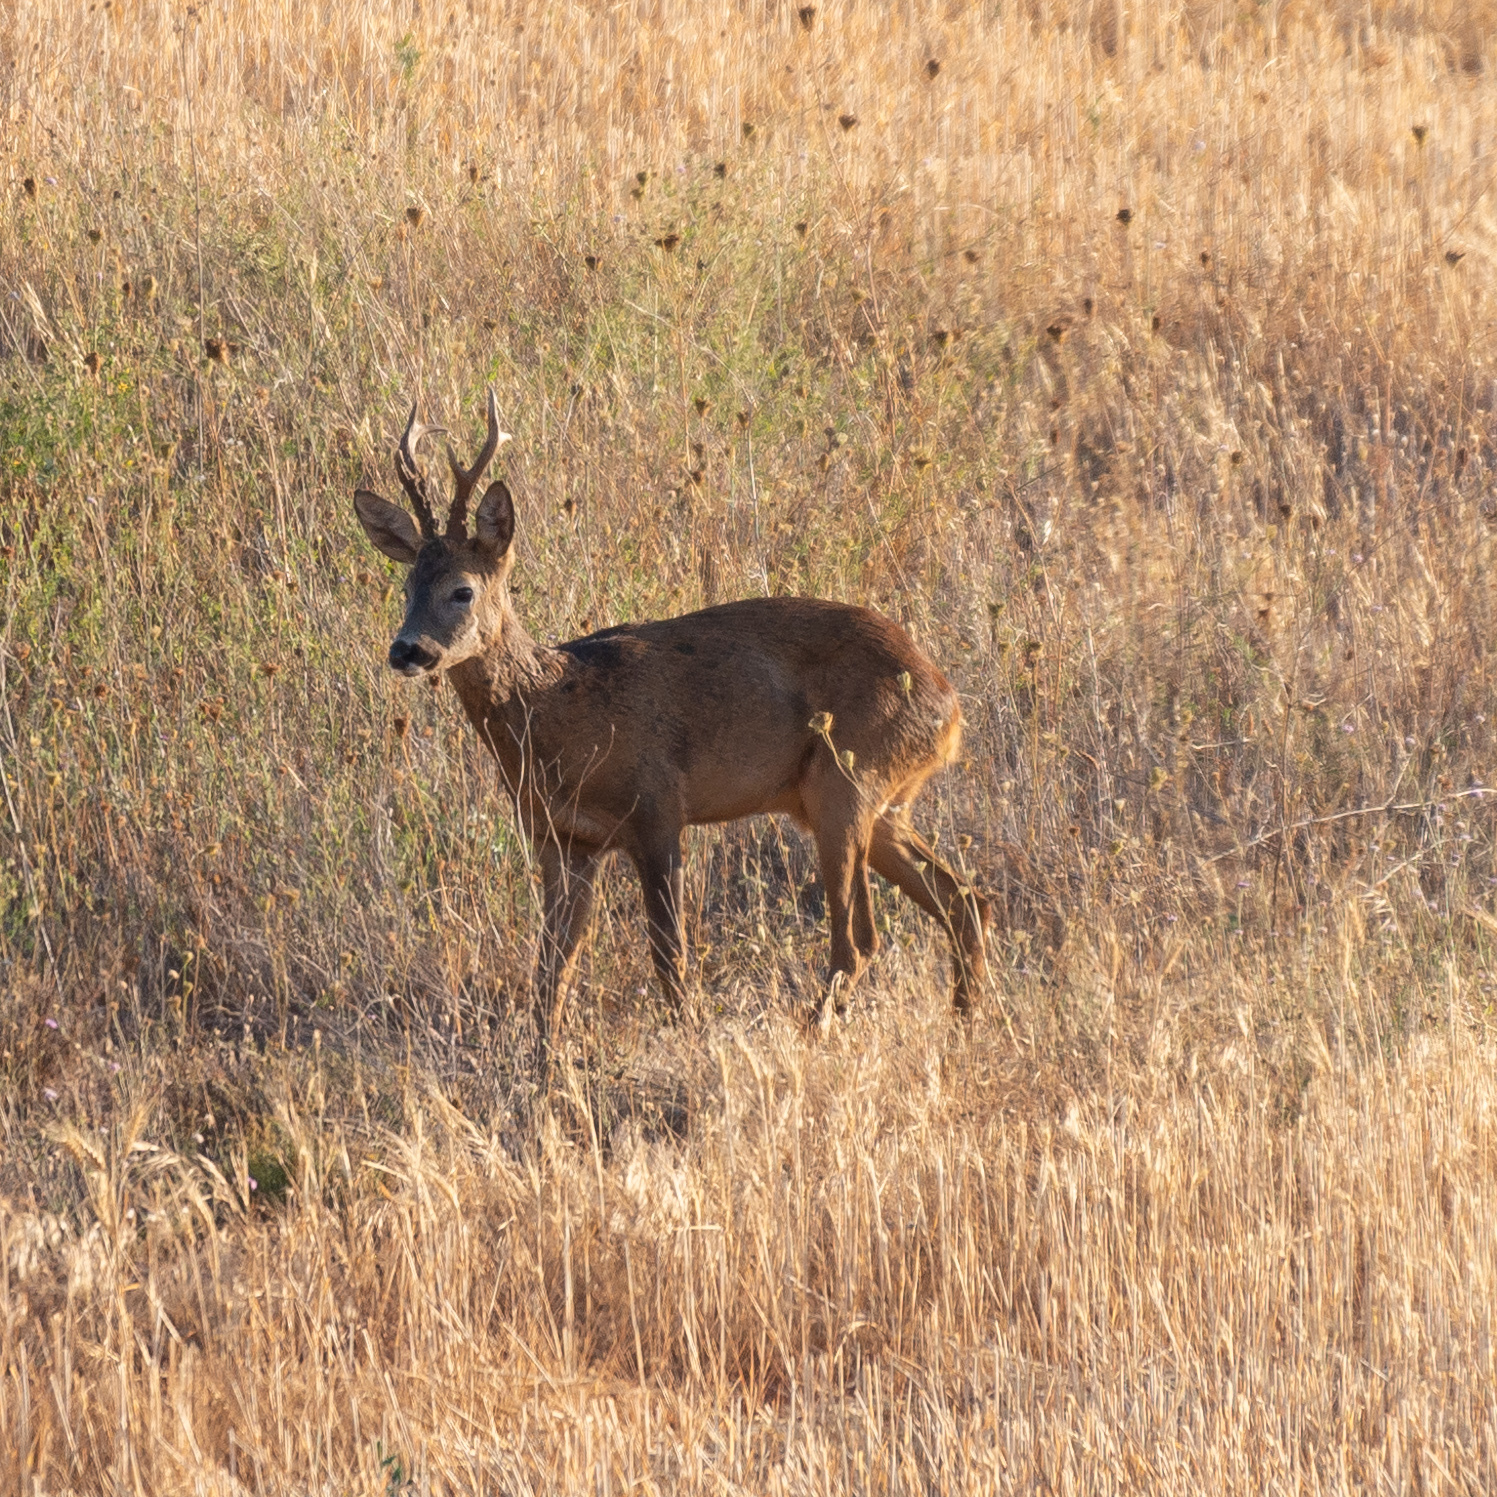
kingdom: Animalia
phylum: Chordata
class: Mammalia
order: Artiodactyla
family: Cervidae
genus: Capreolus
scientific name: Capreolus capreolus
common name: Western roe deer
